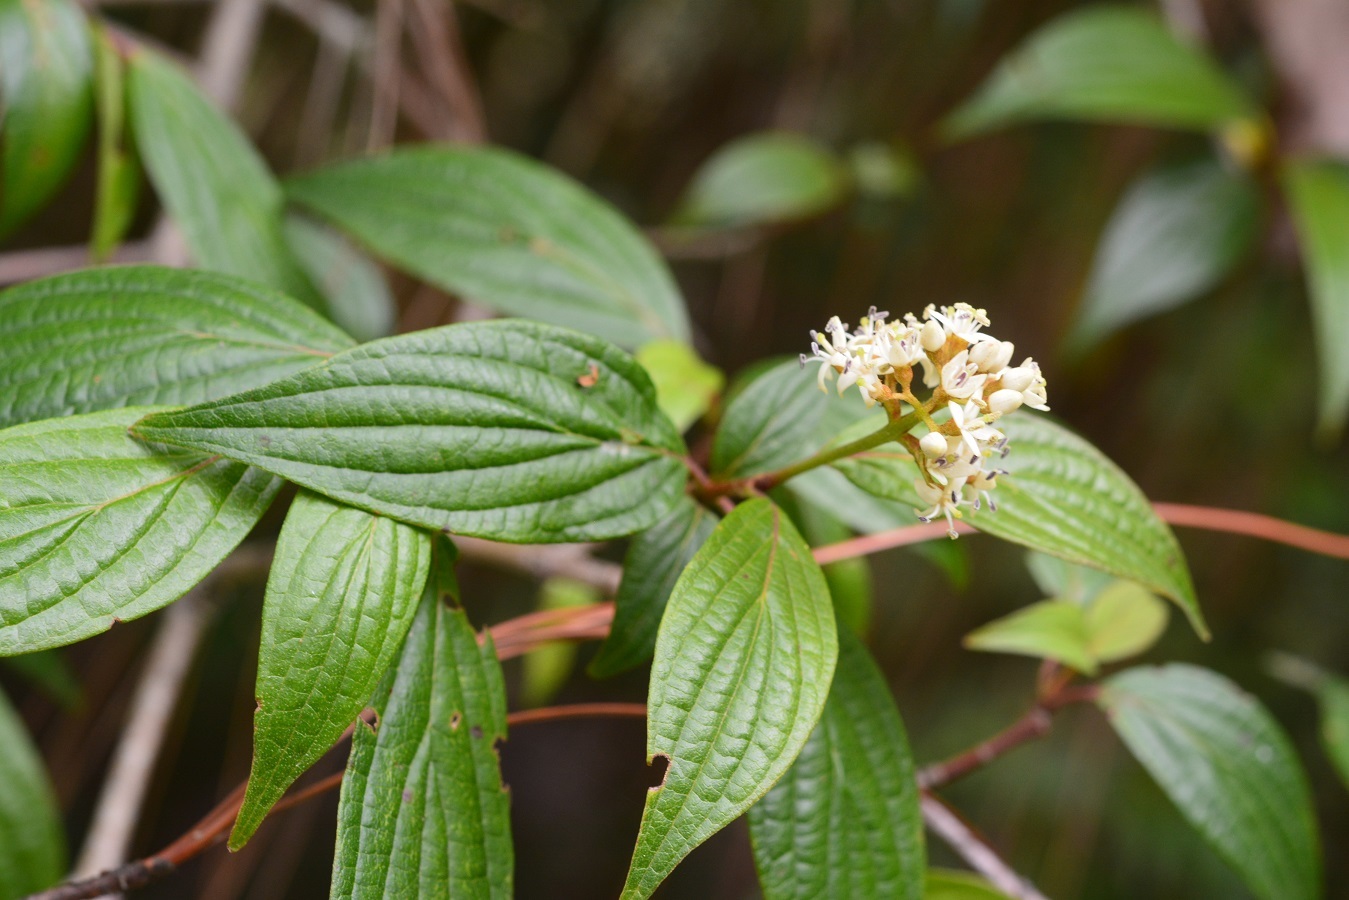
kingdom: Plantae
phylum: Tracheophyta
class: Magnoliopsida
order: Cornales
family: Cornaceae
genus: Cornus
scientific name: Cornus excelsa
